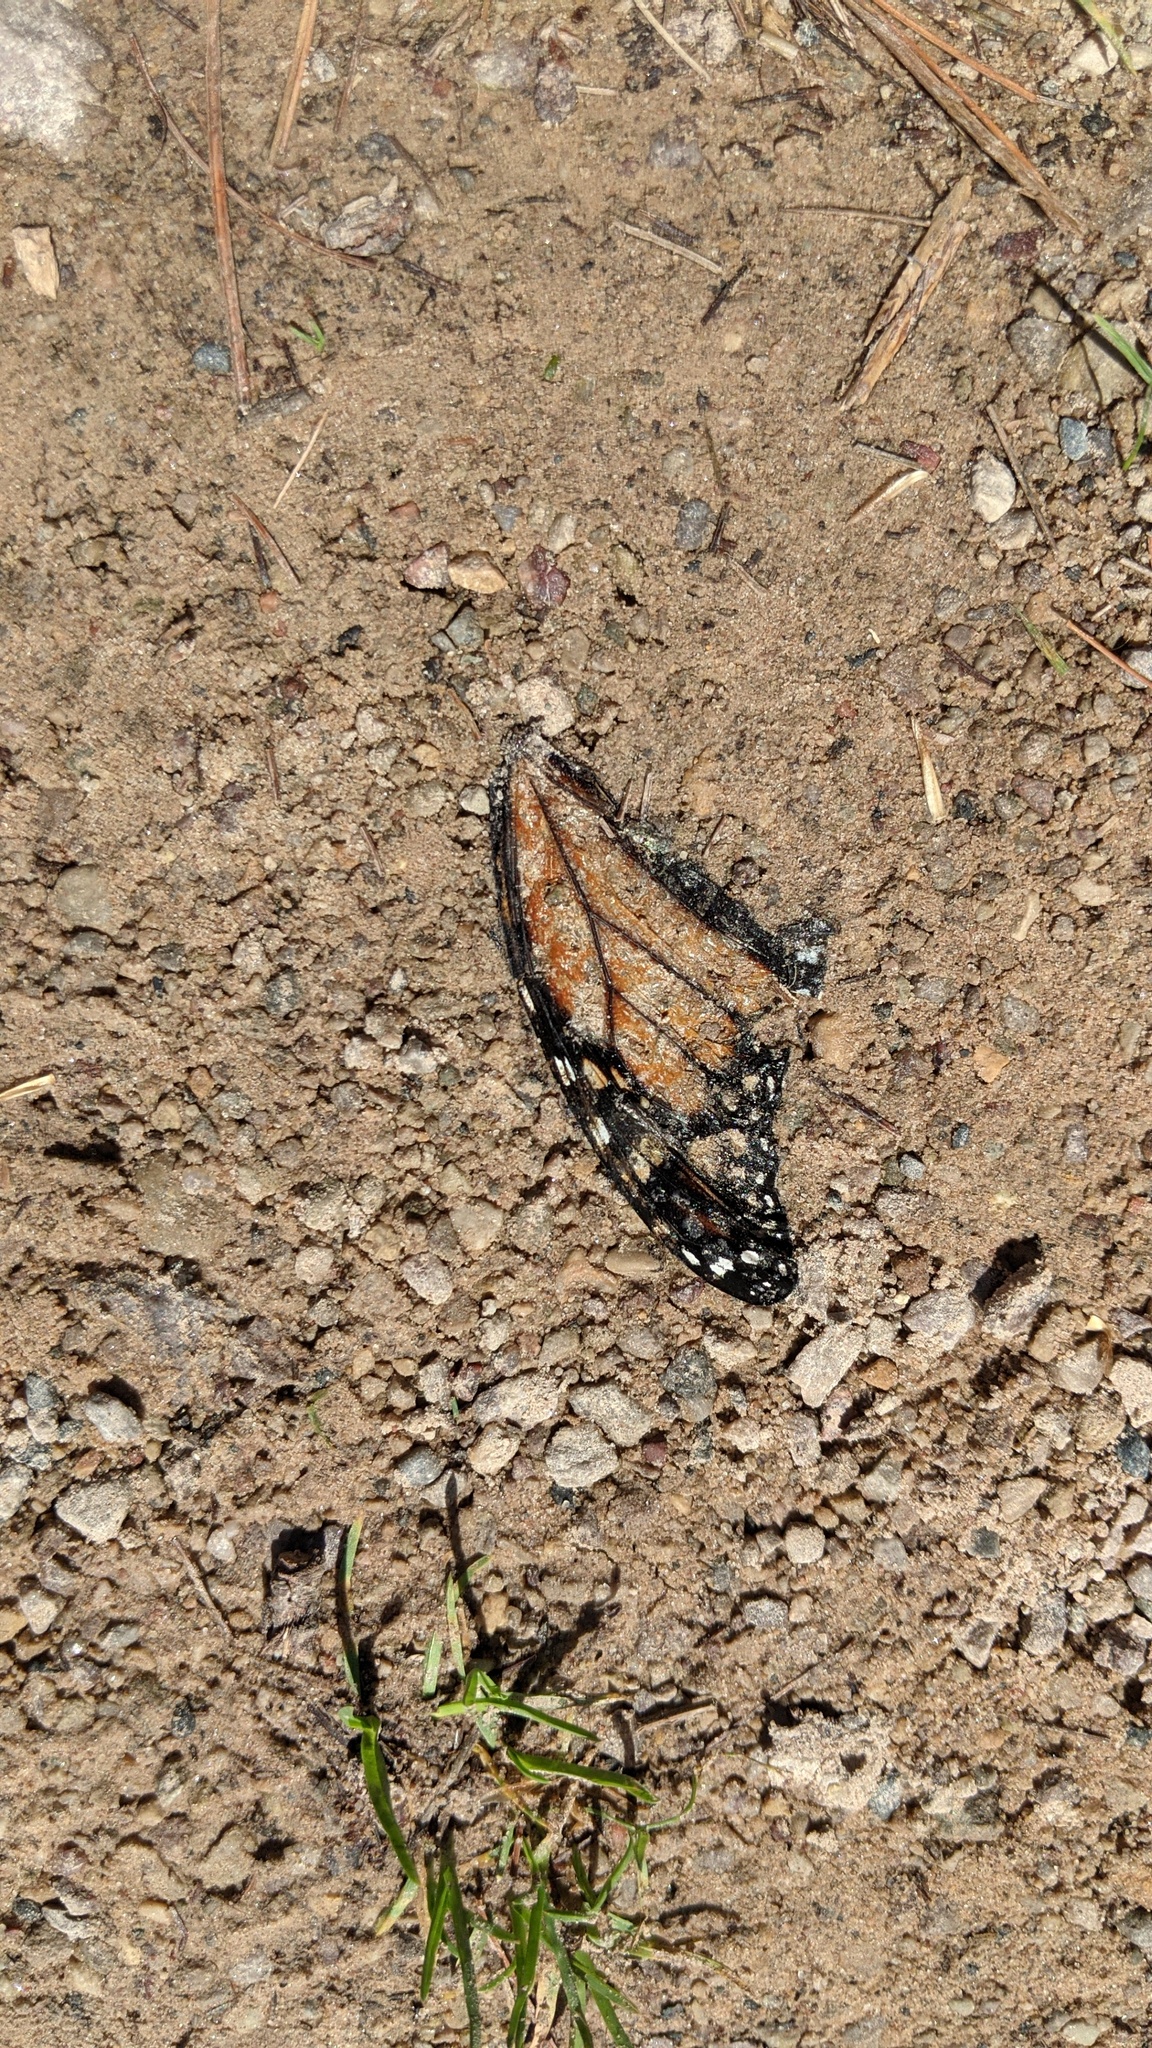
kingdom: Animalia
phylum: Arthropoda
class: Insecta
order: Lepidoptera
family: Nymphalidae
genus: Danaus
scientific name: Danaus plexippus
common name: Monarch
